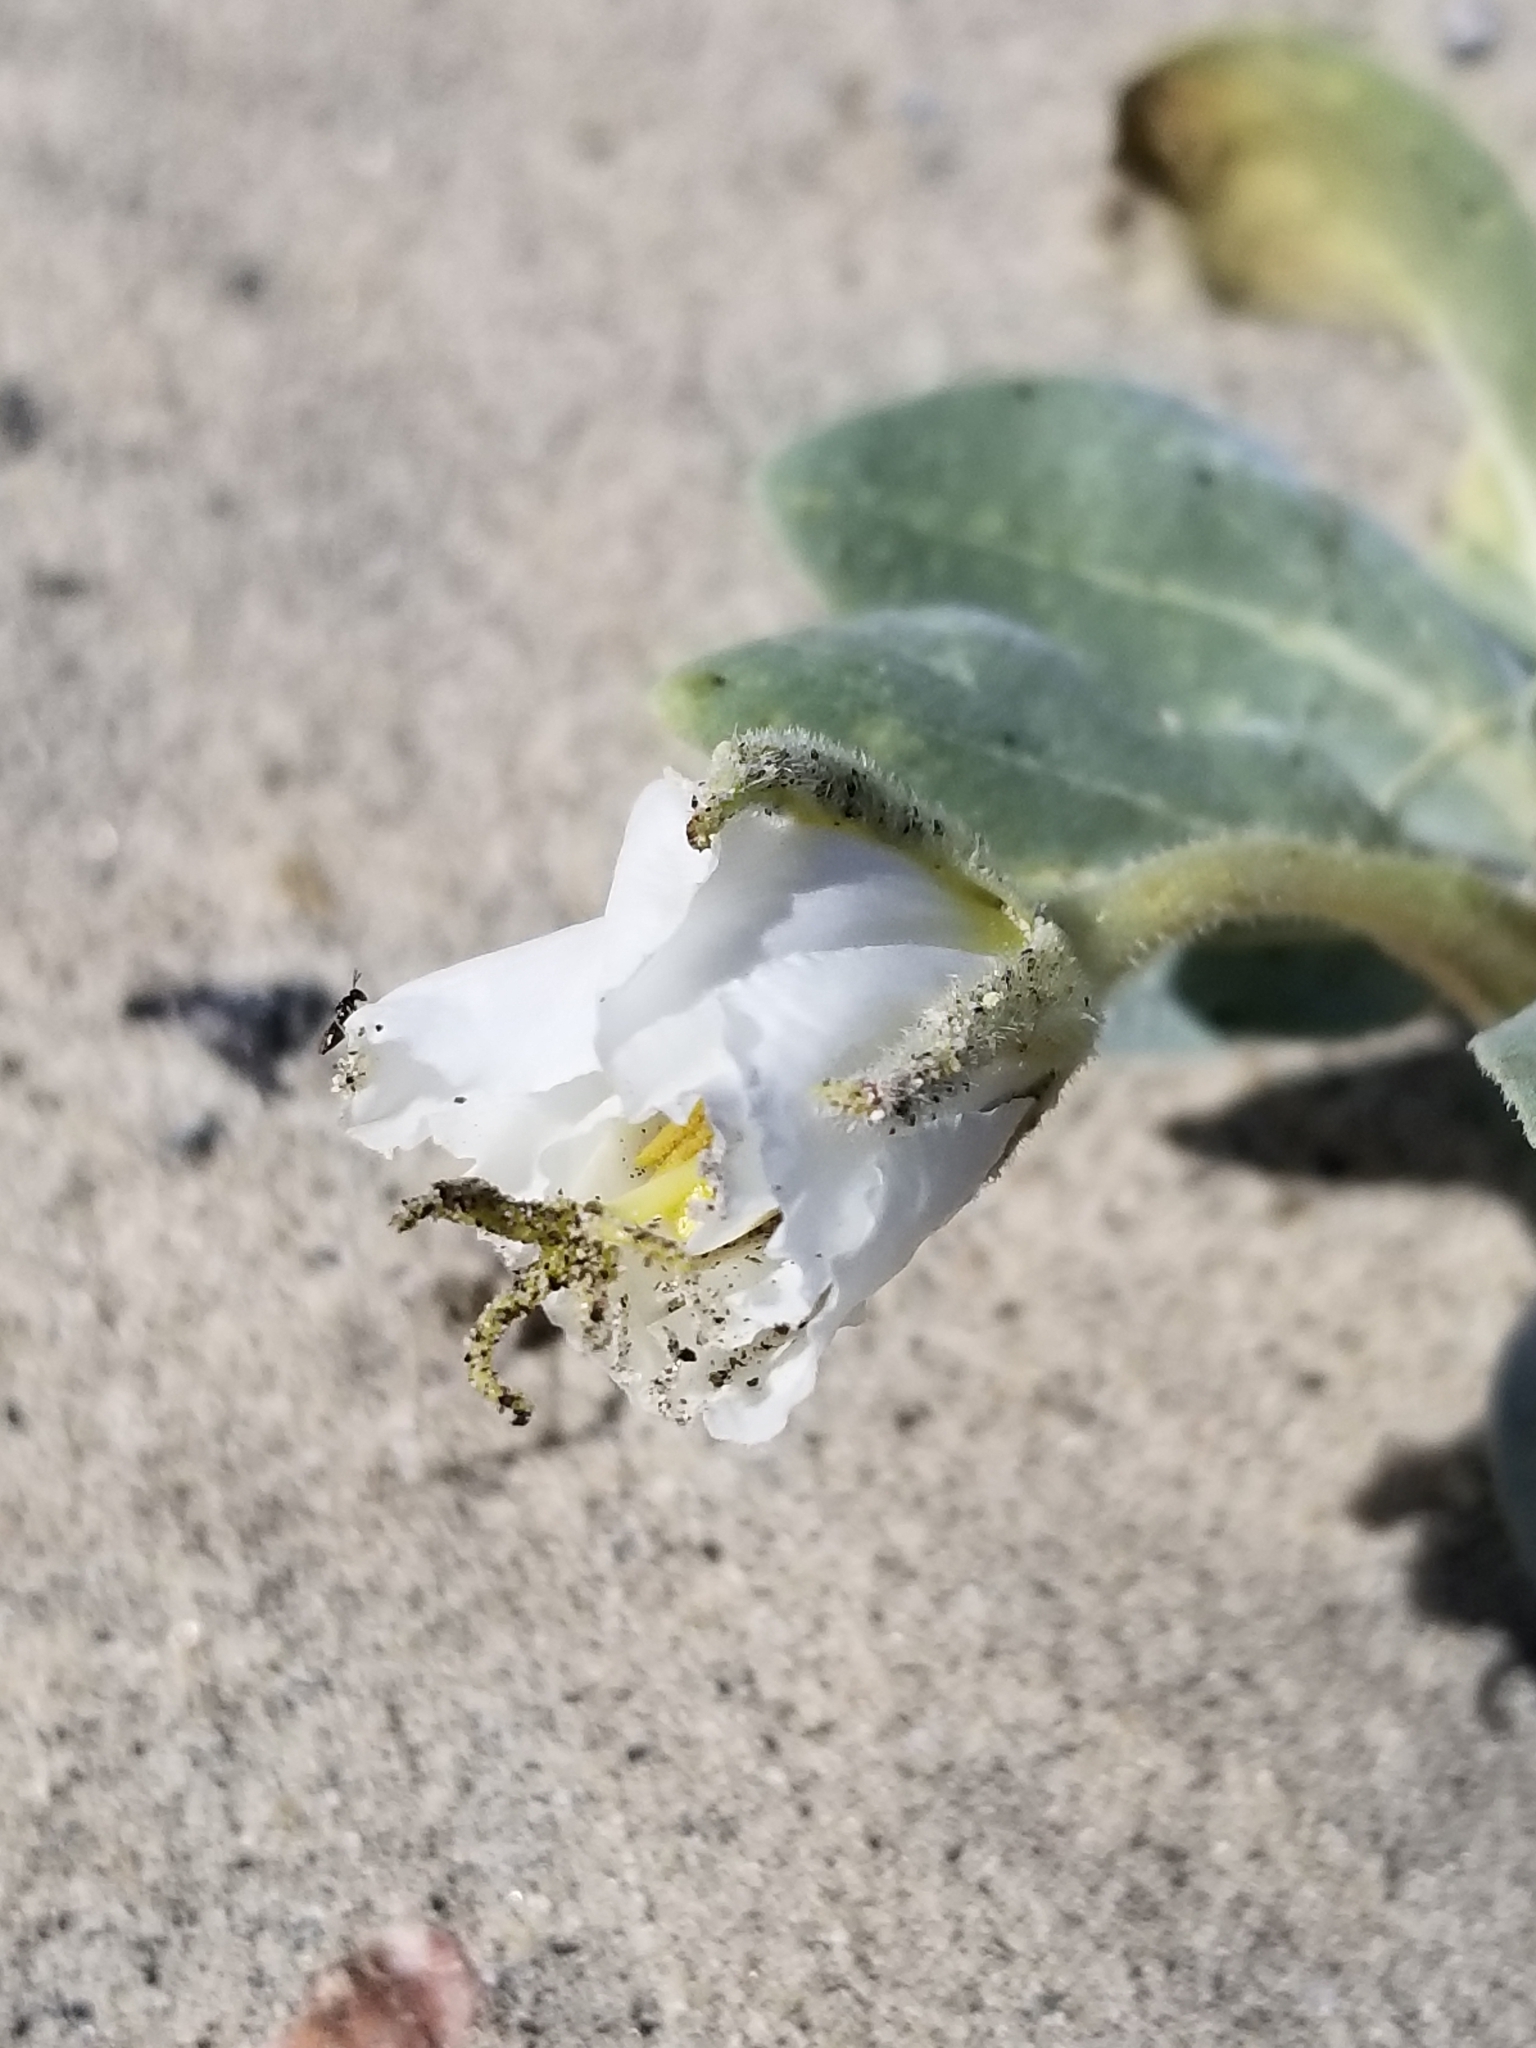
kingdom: Plantae
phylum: Tracheophyta
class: Magnoliopsida
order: Myrtales
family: Onagraceae
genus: Oenothera
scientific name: Oenothera deltoides
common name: Basket evening-primrose
